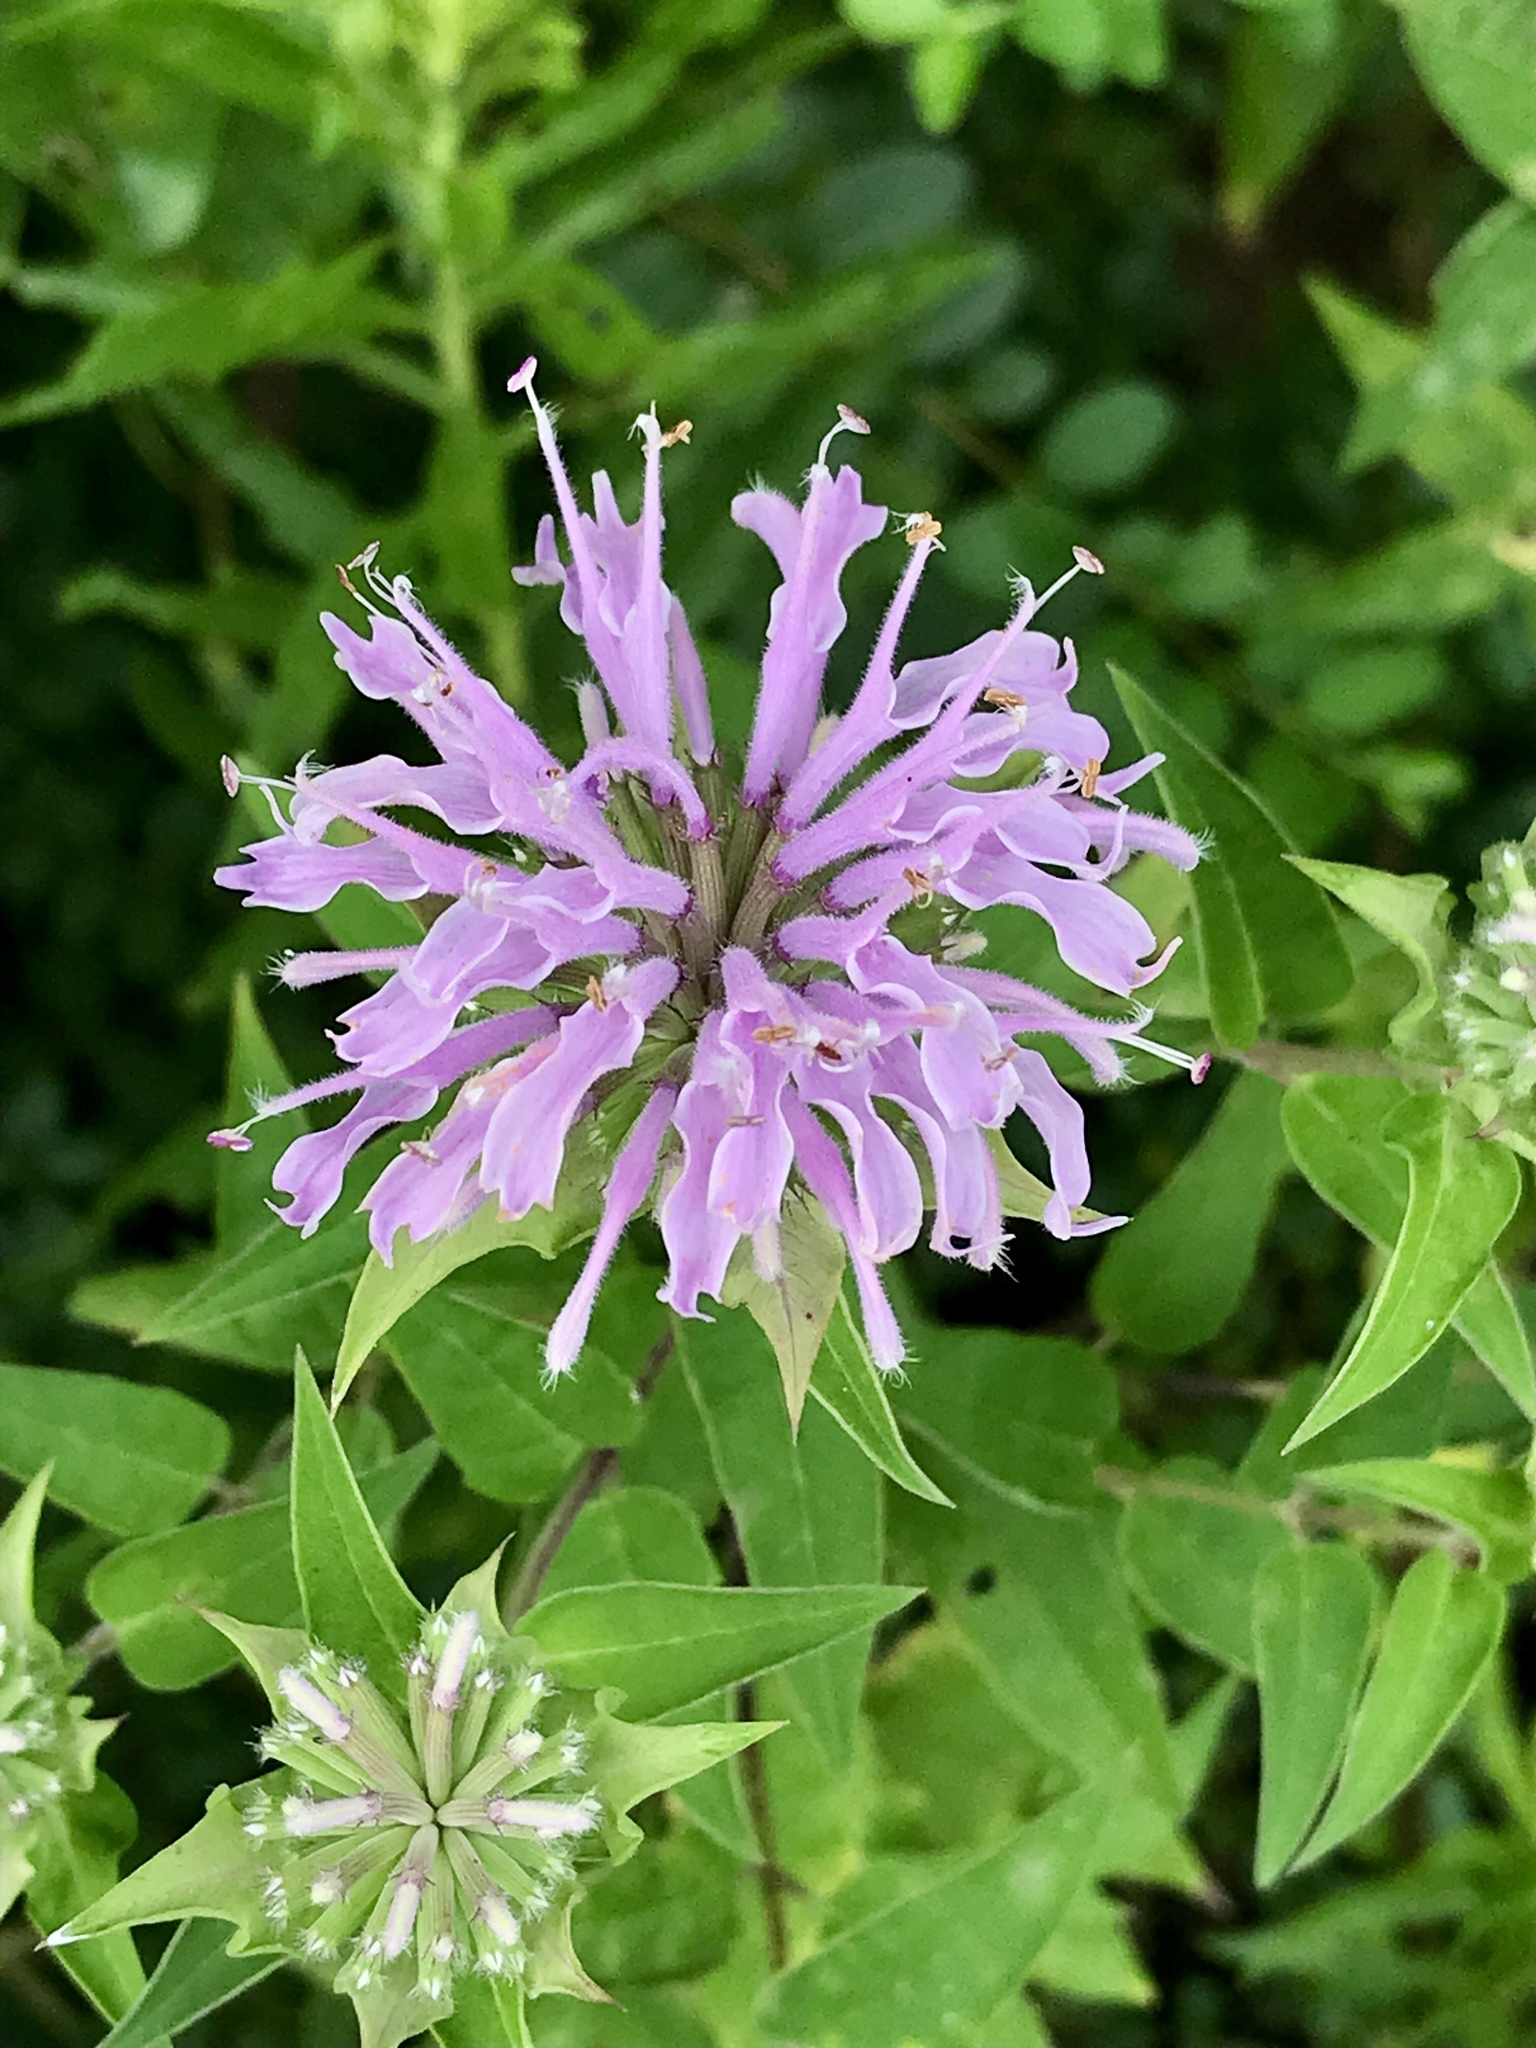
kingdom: Plantae
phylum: Tracheophyta
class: Magnoliopsida
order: Lamiales
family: Lamiaceae
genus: Monarda
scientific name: Monarda fistulosa
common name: Purple beebalm
